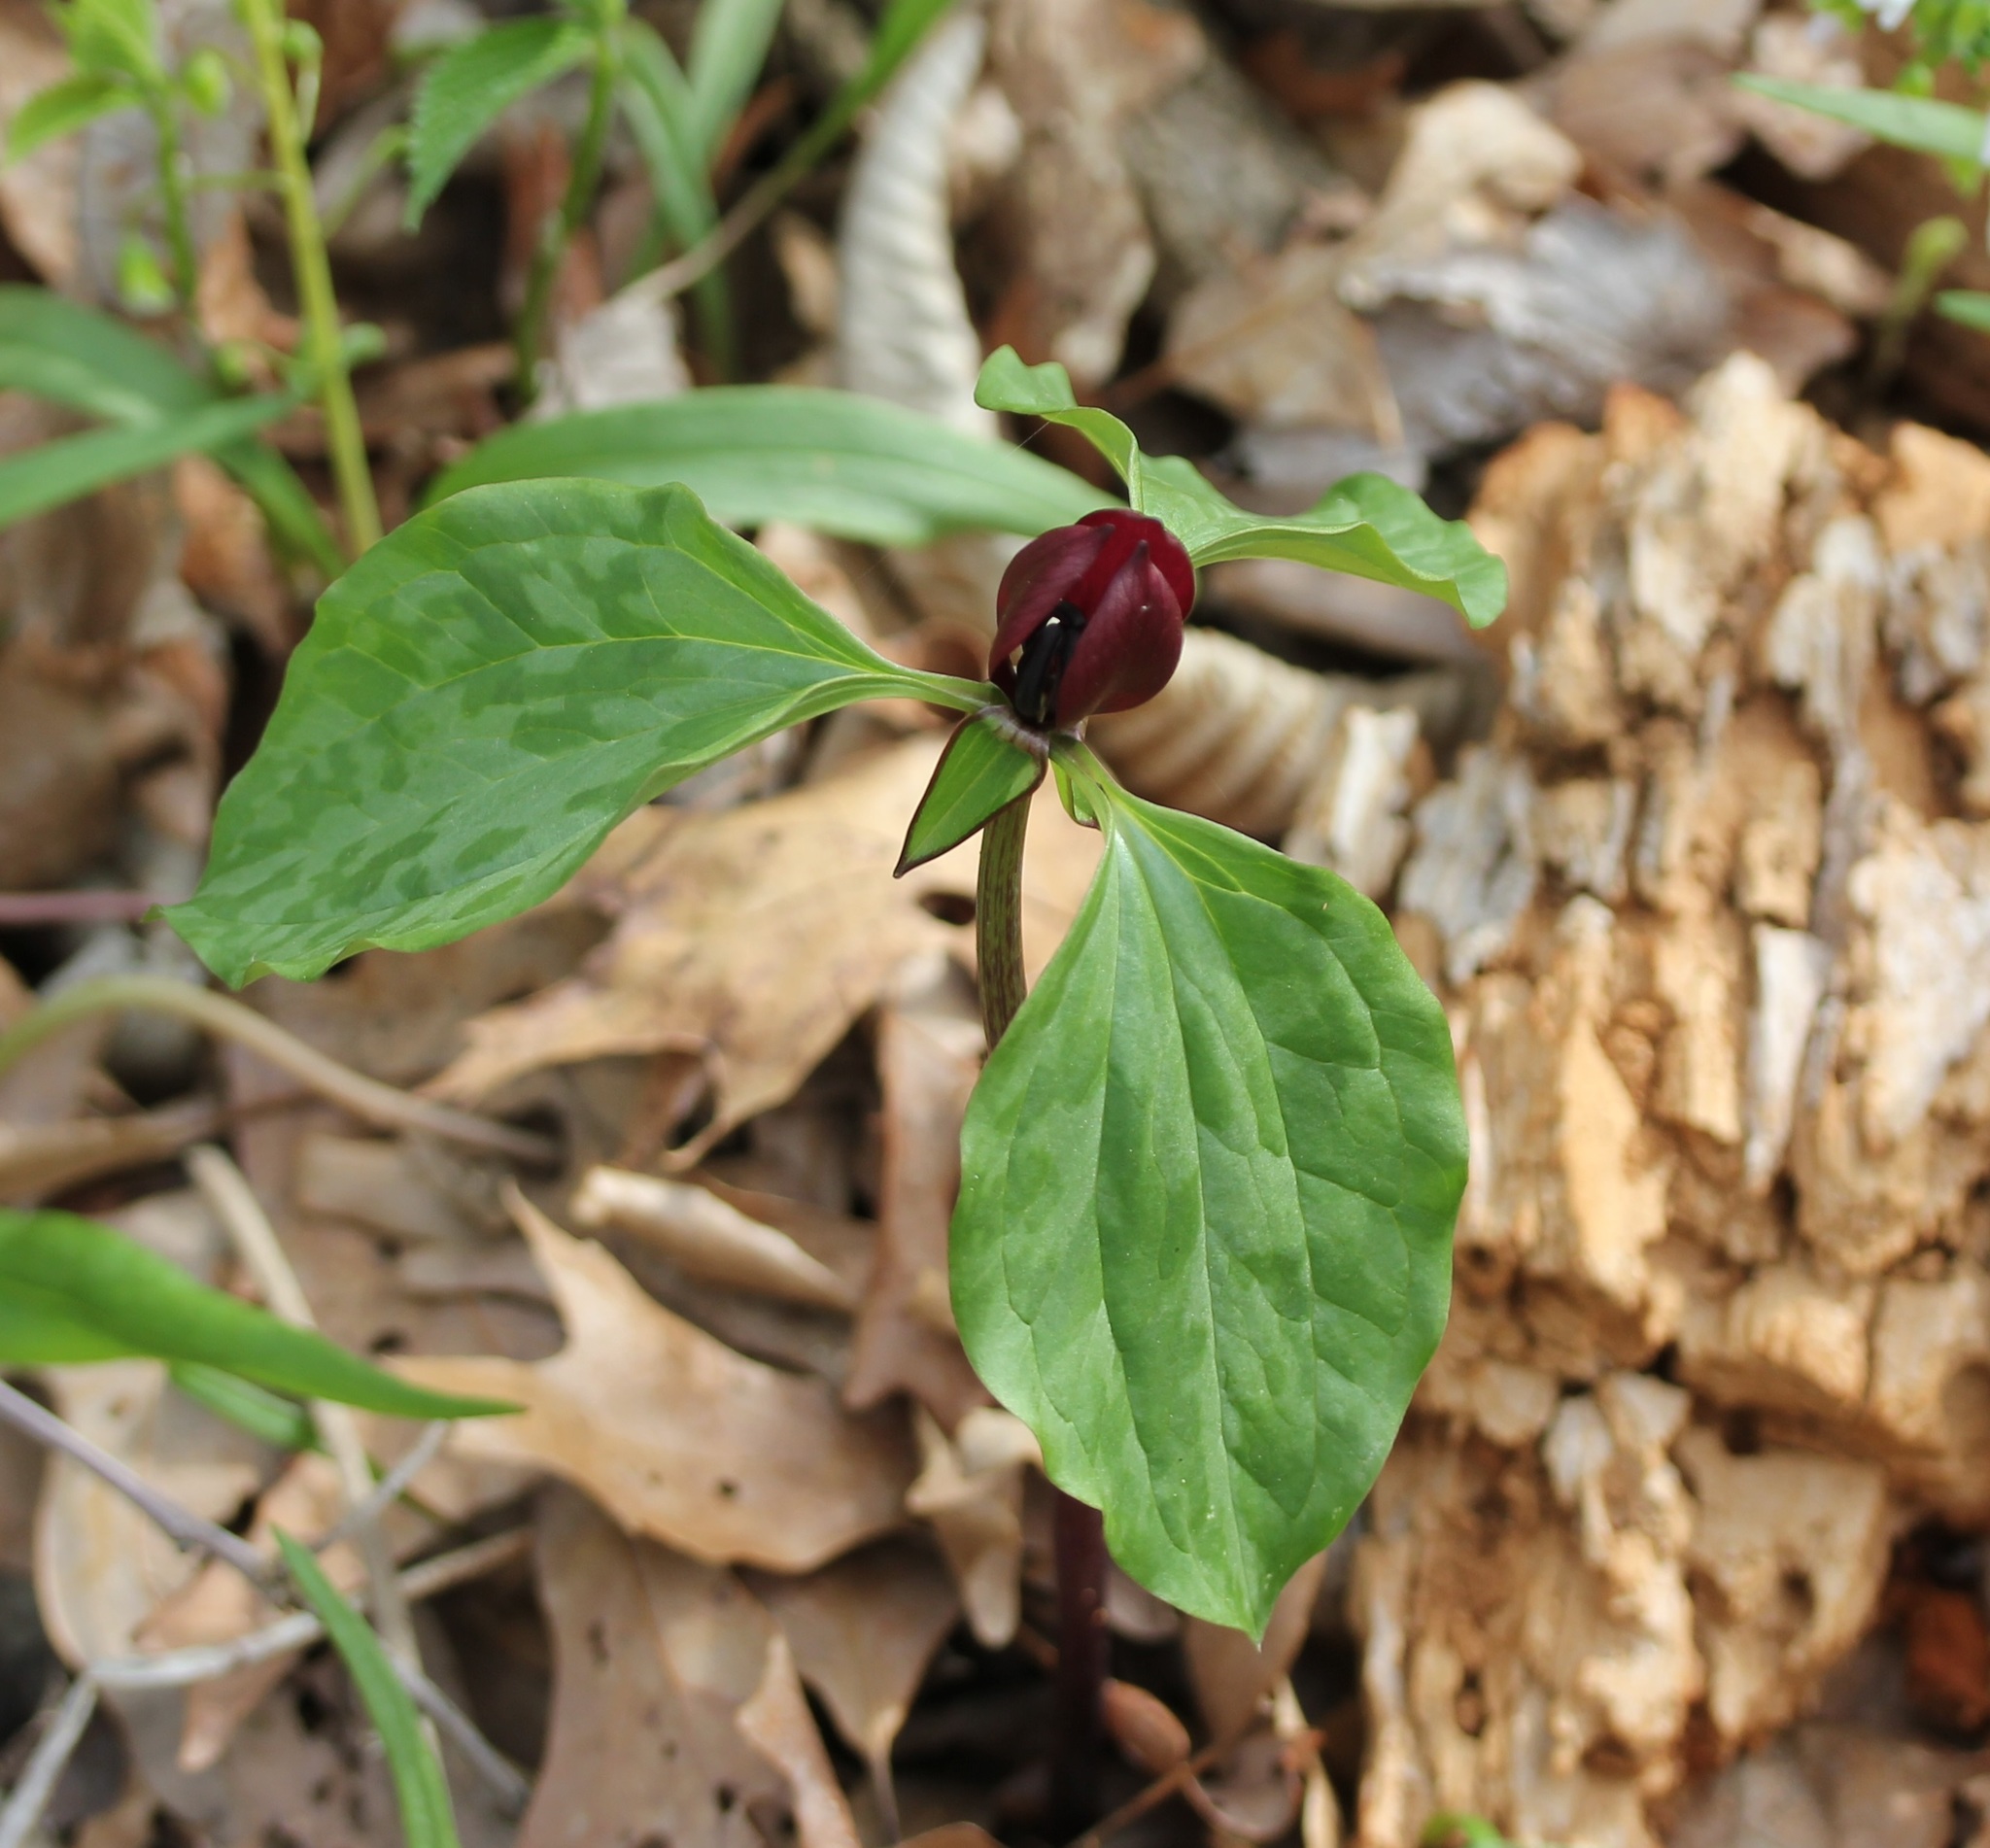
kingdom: Plantae
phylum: Tracheophyta
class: Liliopsida
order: Liliales
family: Melanthiaceae
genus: Trillium
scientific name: Trillium recurvatum
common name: Bloody butcher
